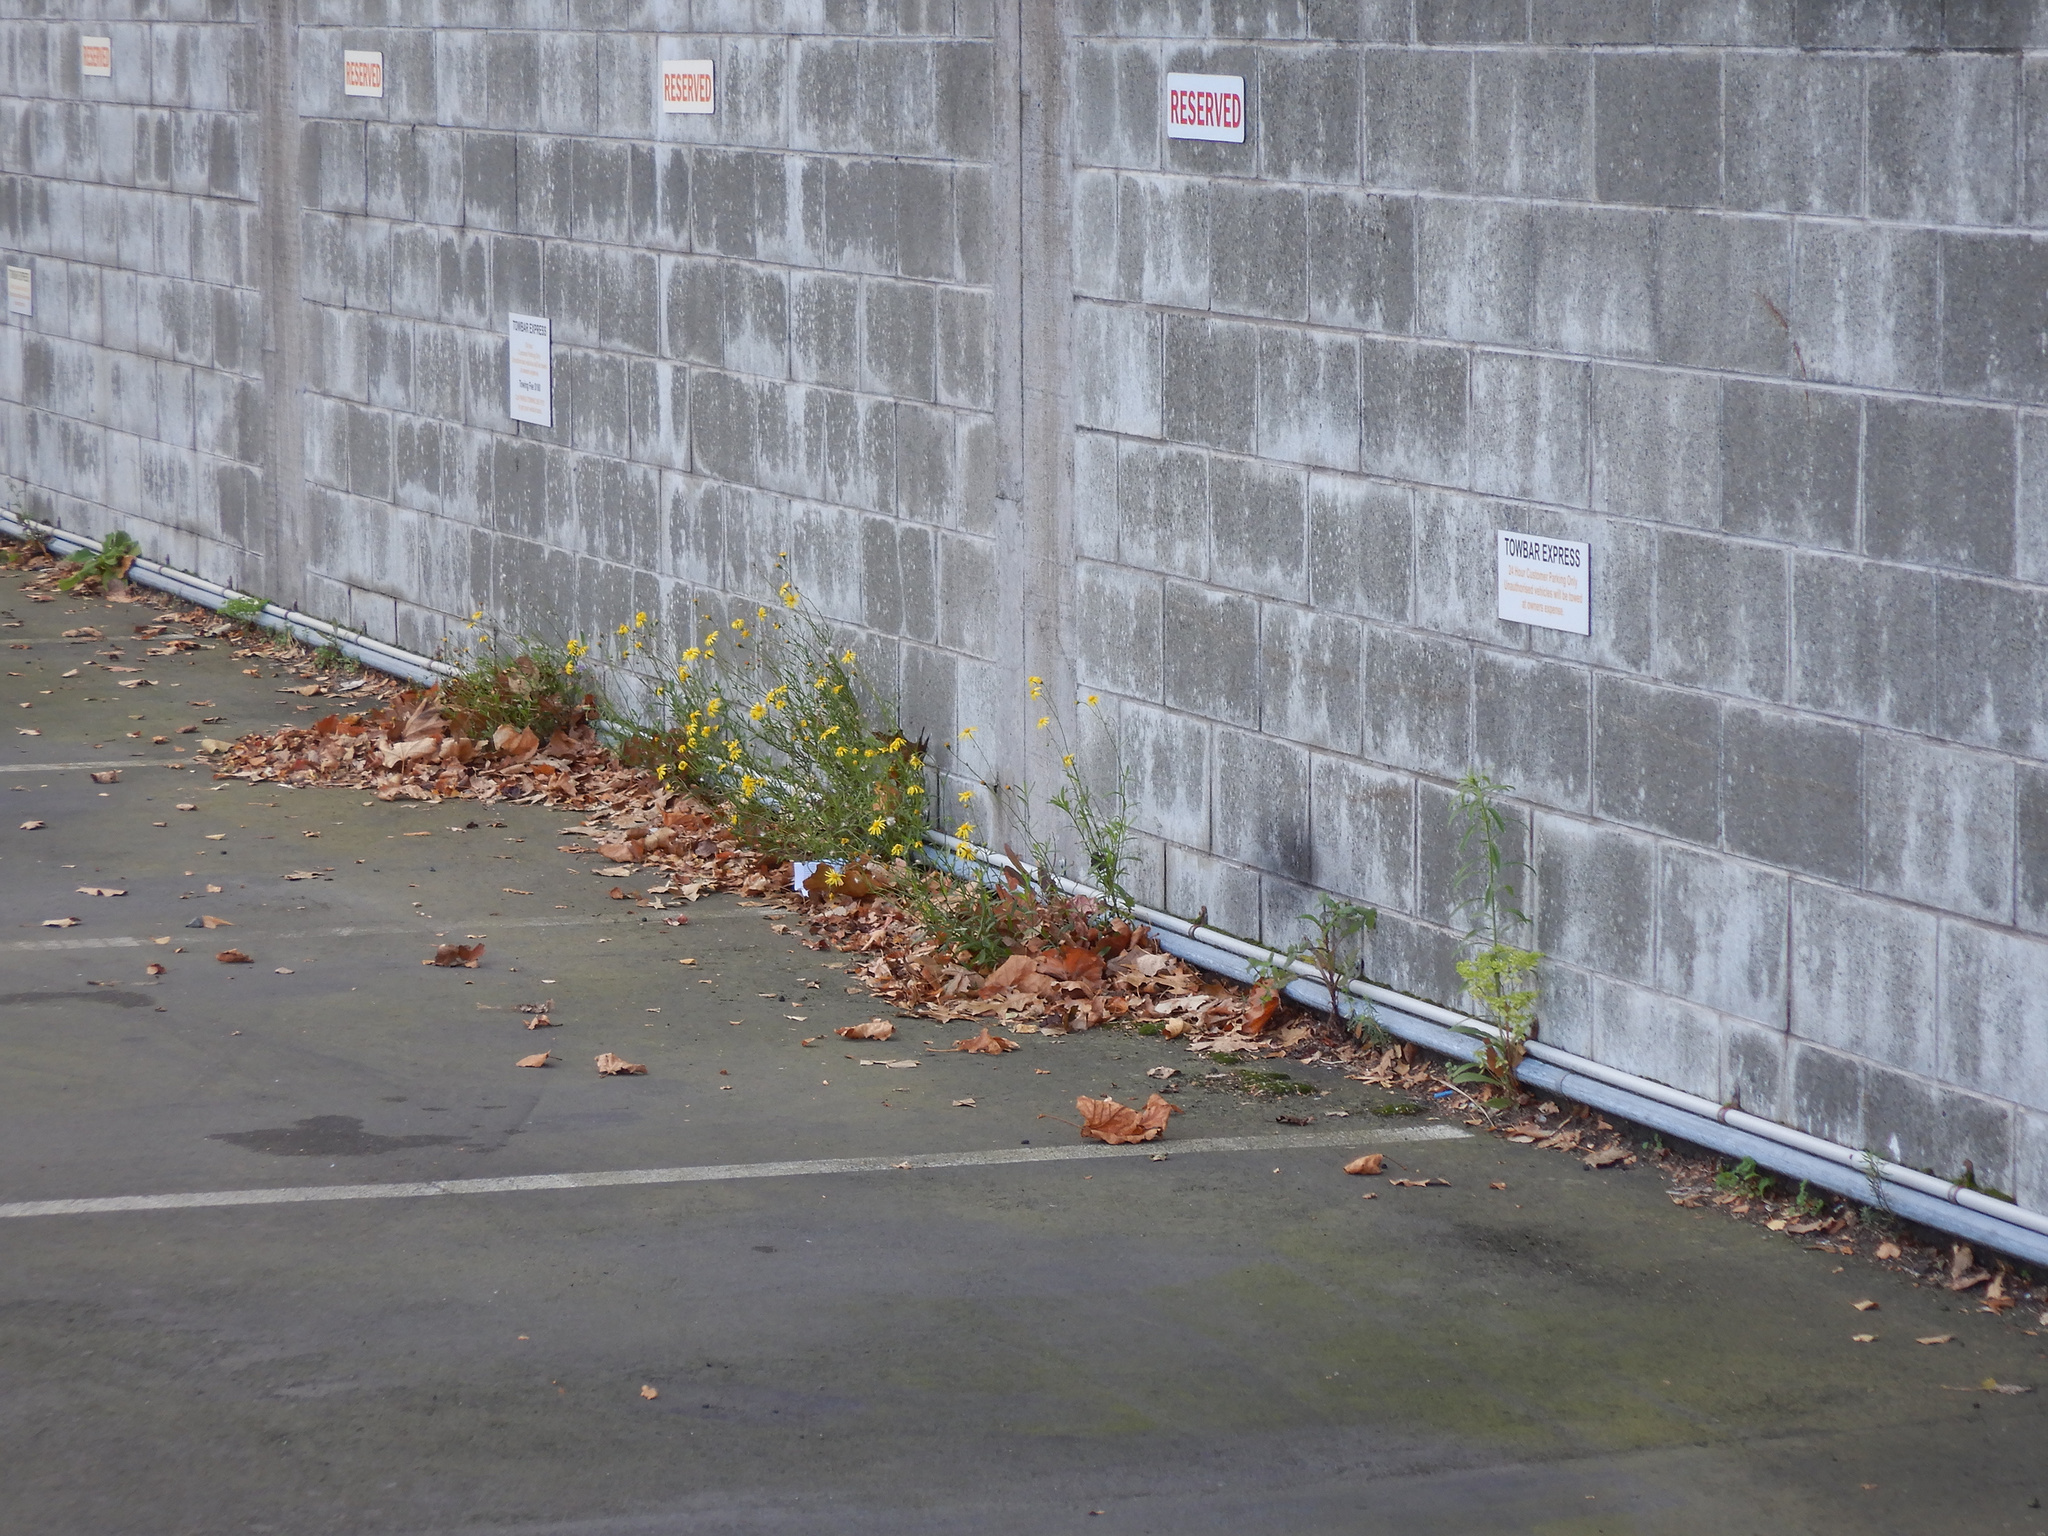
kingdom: Plantae
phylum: Tracheophyta
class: Magnoliopsida
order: Asterales
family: Asteraceae
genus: Senecio
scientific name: Senecio skirrhodon
